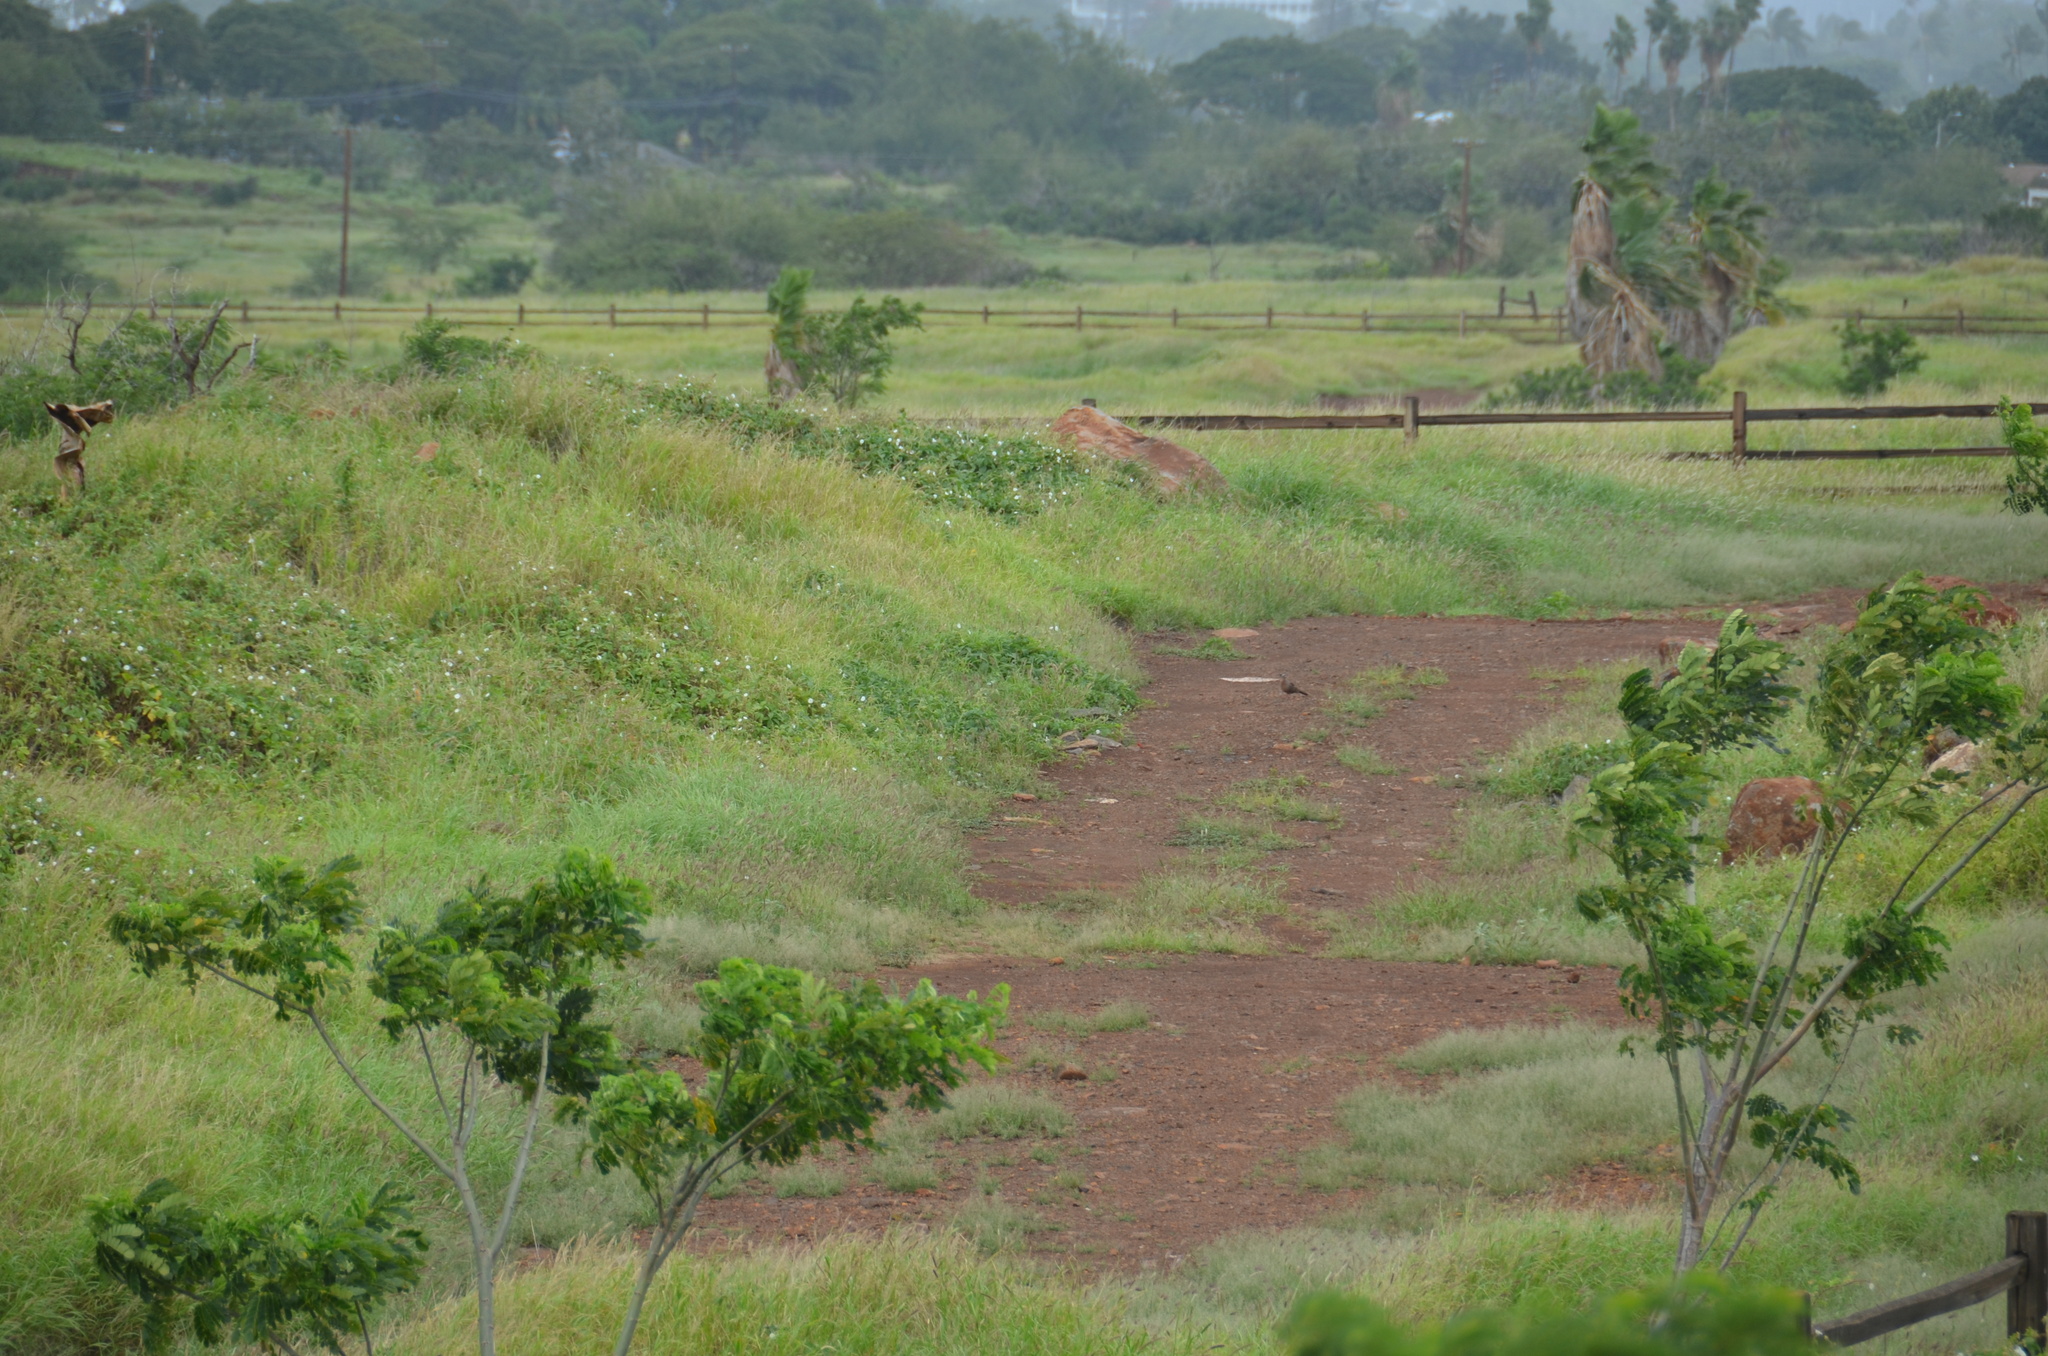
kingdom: Animalia
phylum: Chordata
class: Aves
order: Columbiformes
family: Columbidae
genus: Spilopelia
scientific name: Spilopelia chinensis
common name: Spotted dove
